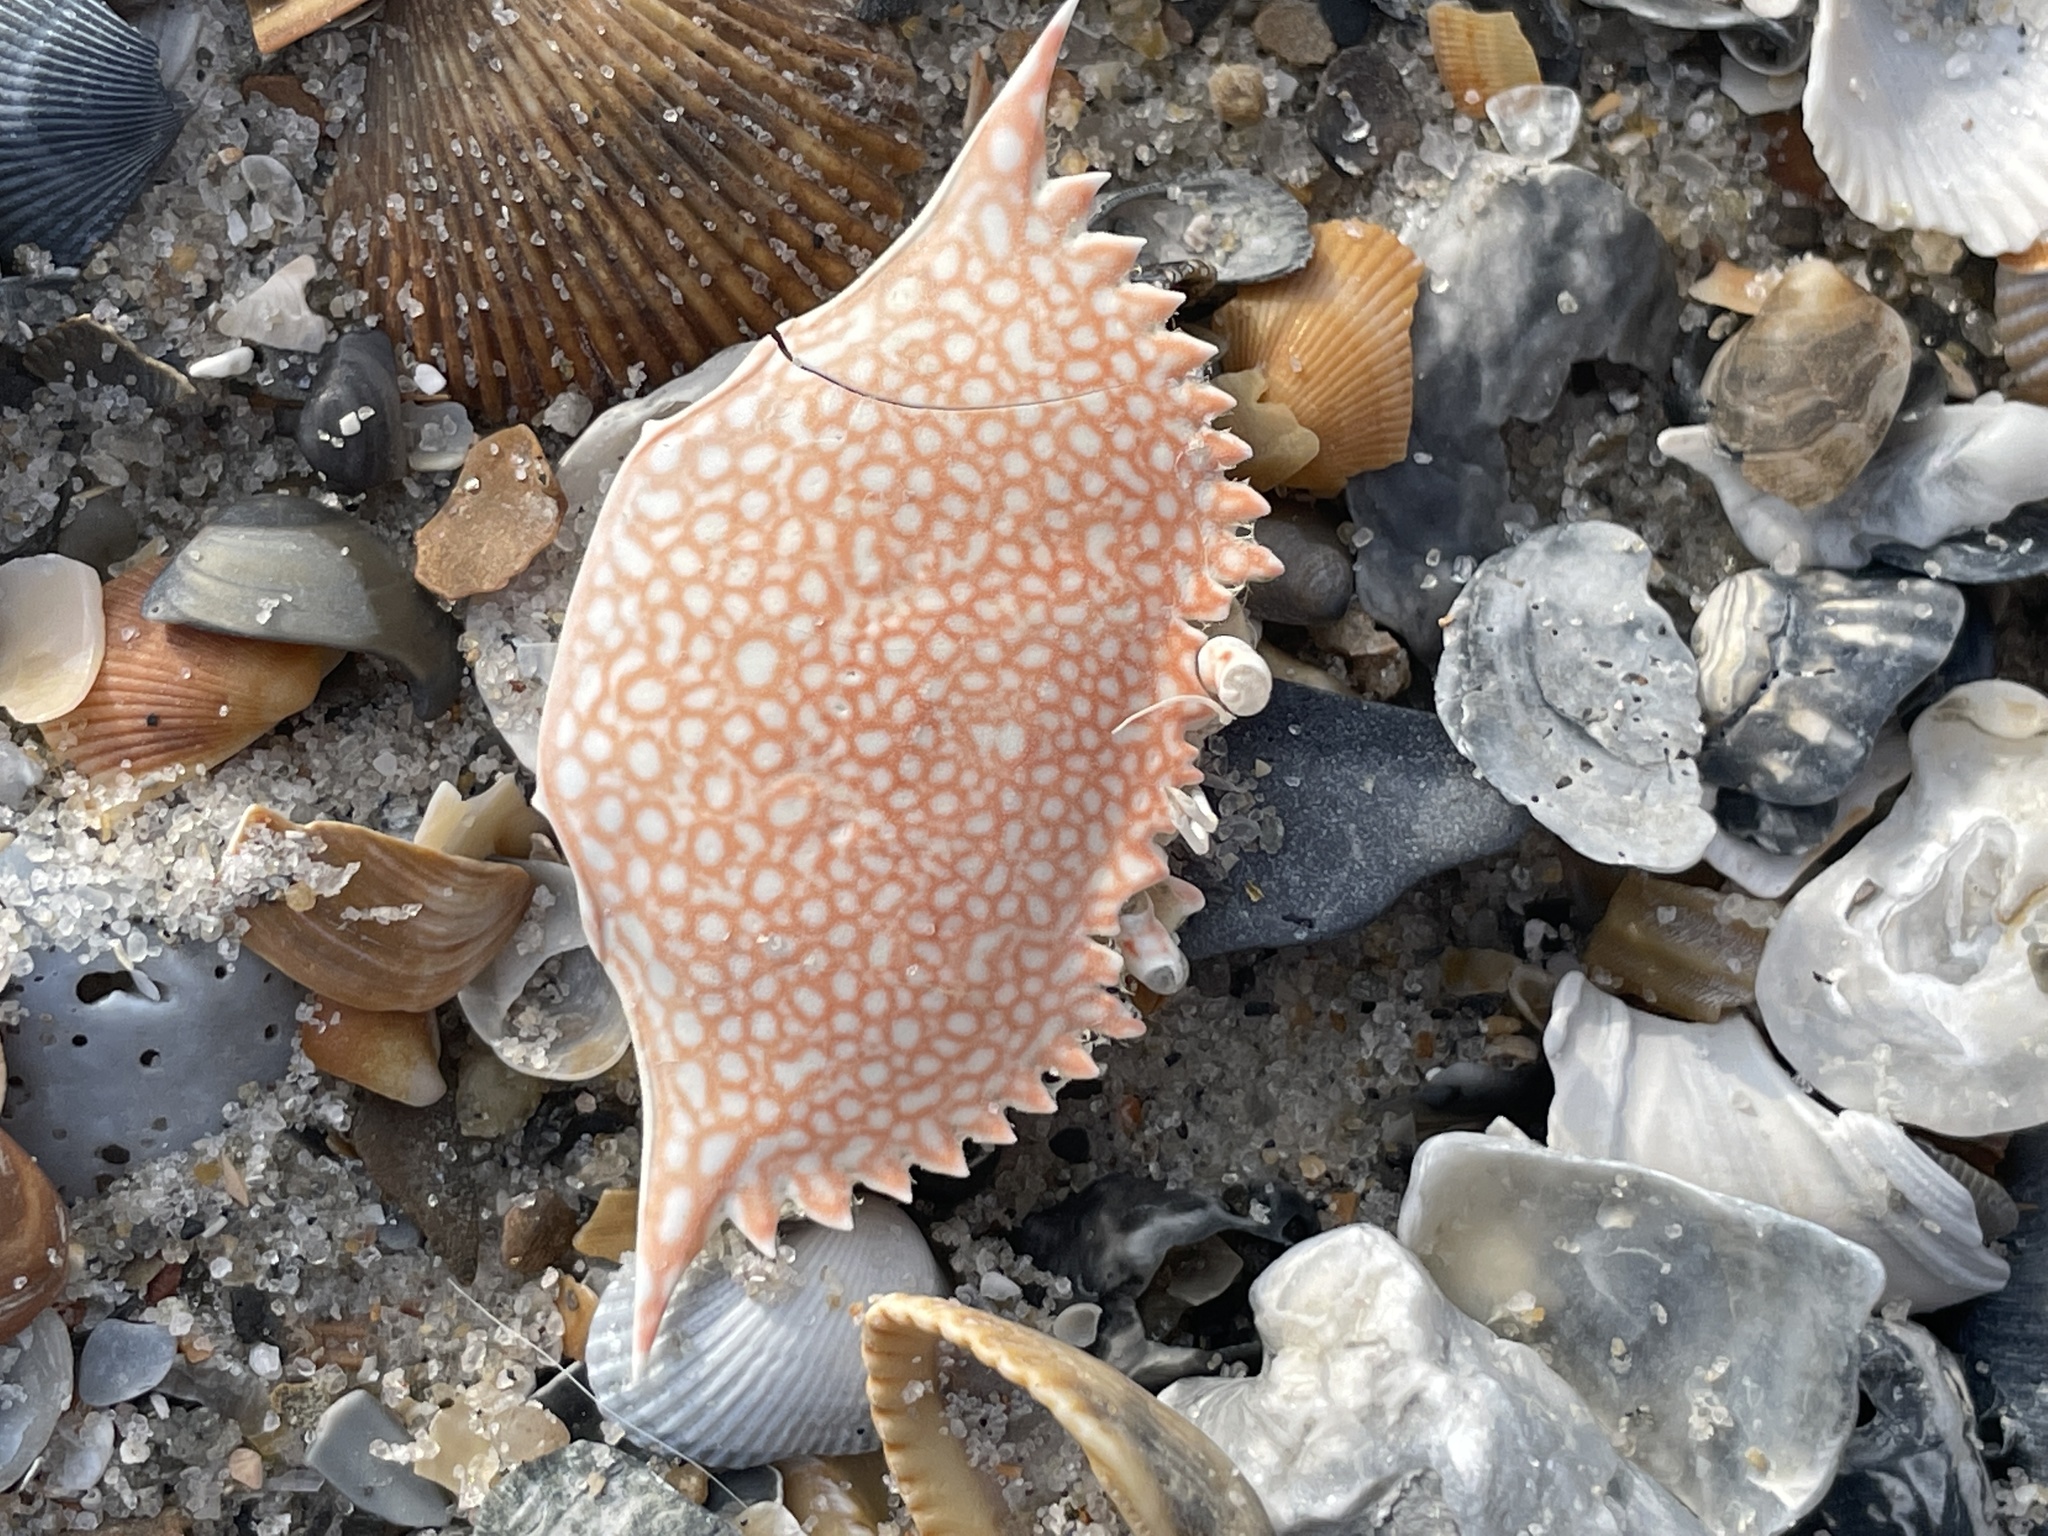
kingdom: Animalia
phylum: Arthropoda
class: Malacostraca
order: Decapoda
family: Portunidae
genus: Arenaeus
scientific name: Arenaeus cribrarius
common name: Speckled crab
